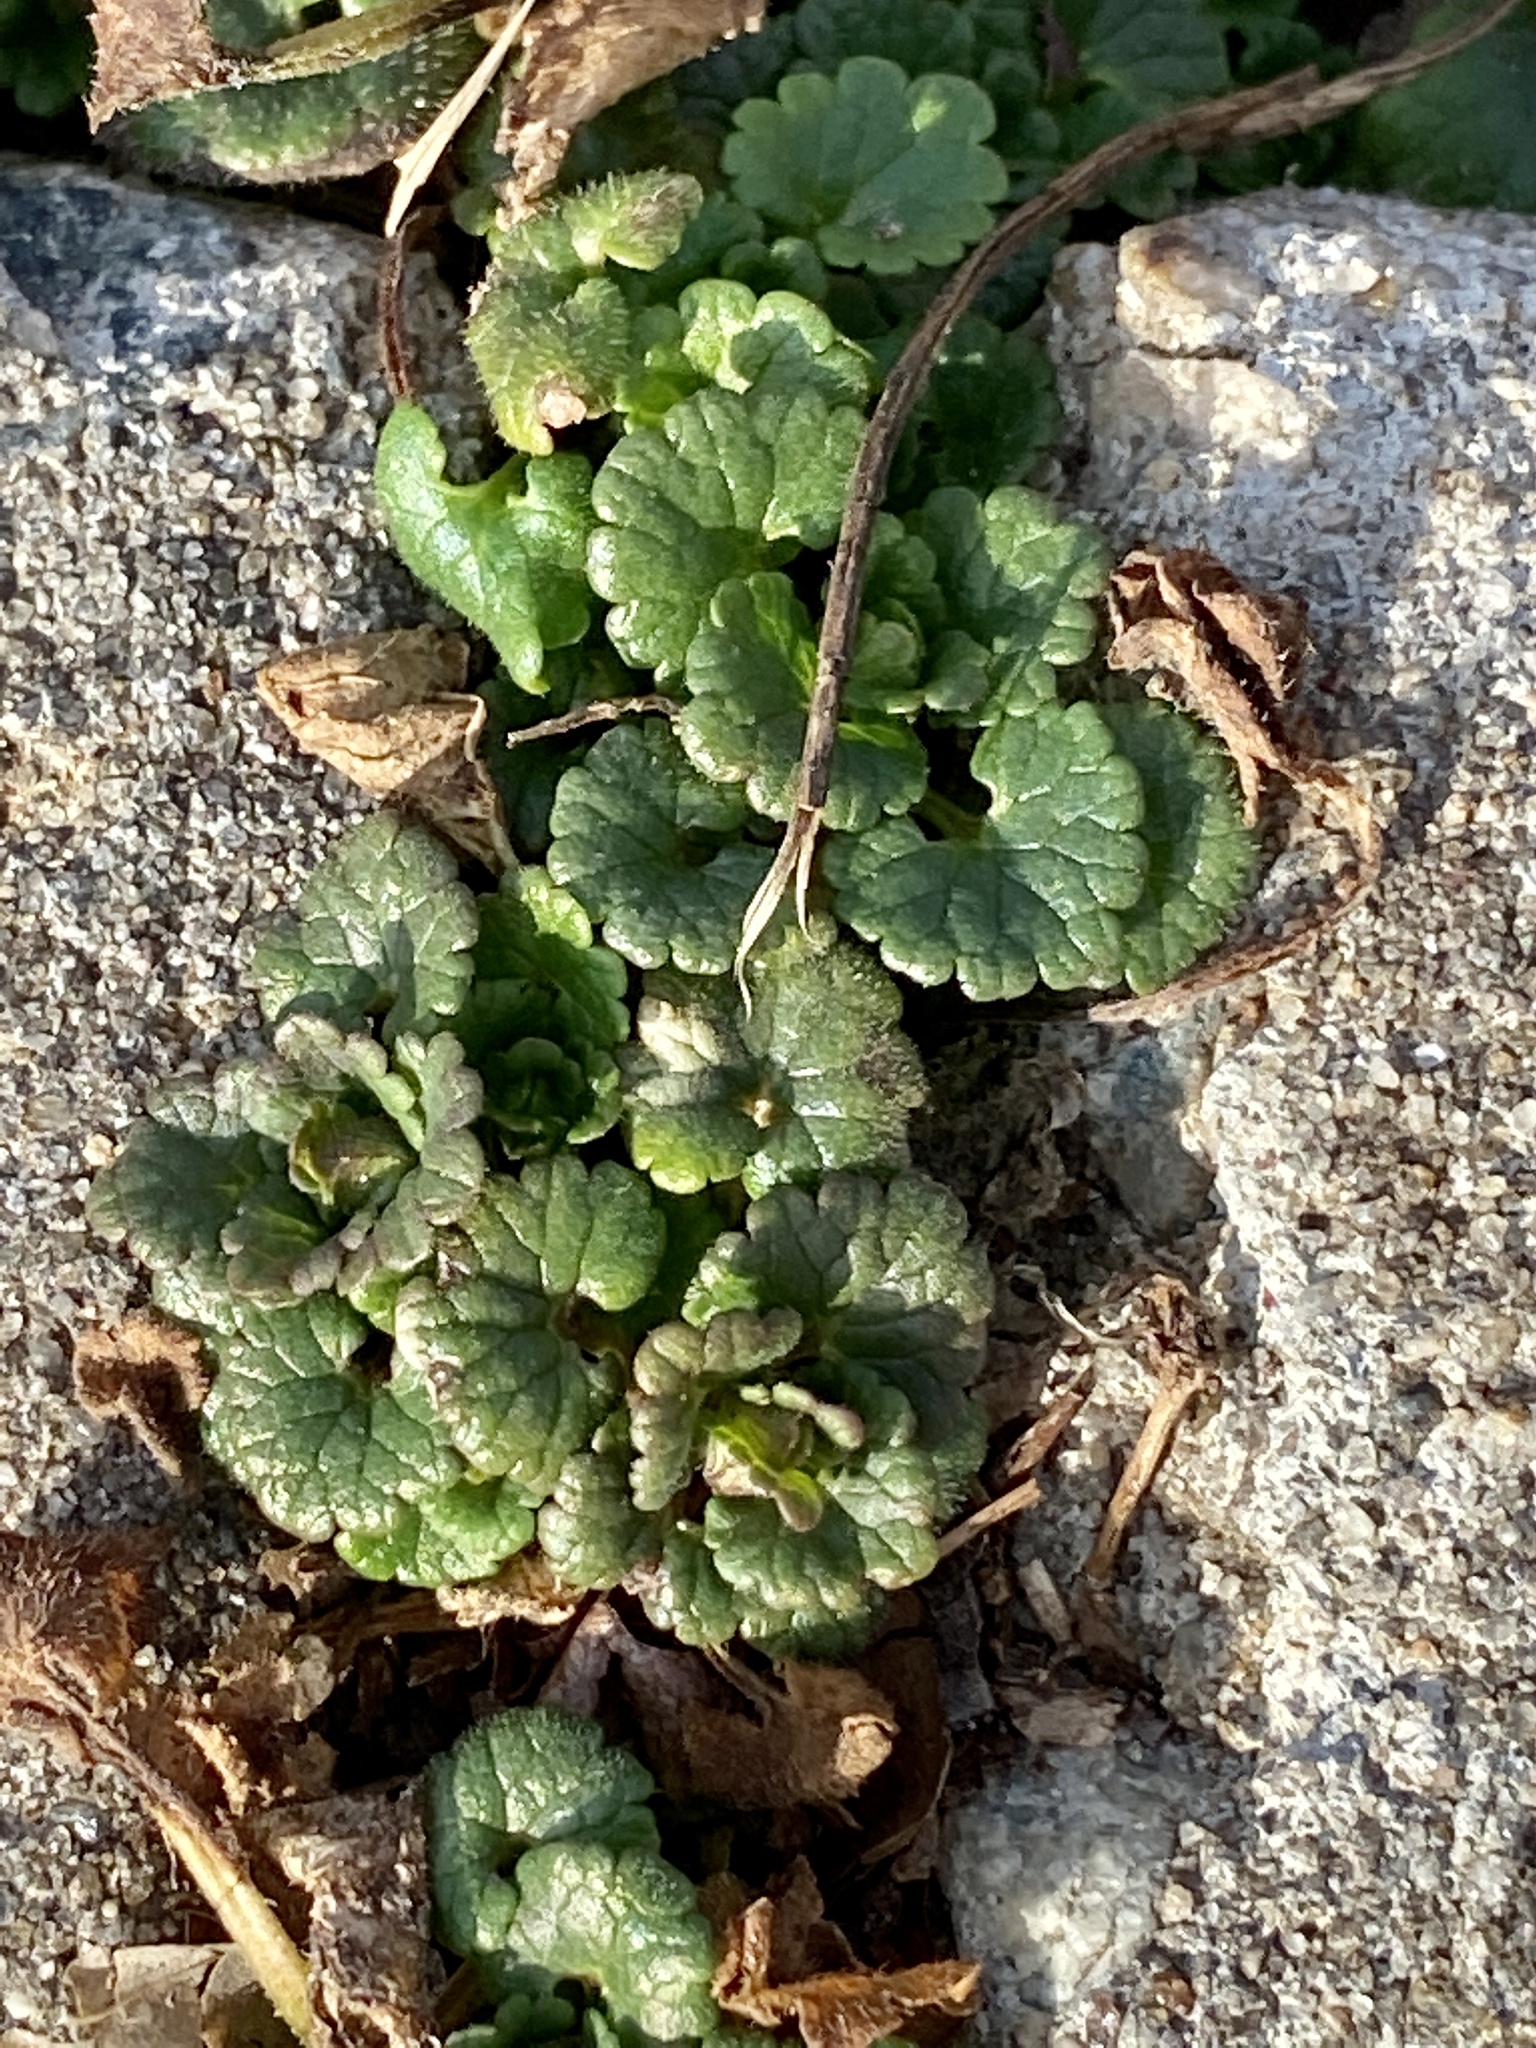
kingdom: Plantae
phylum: Tracheophyta
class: Magnoliopsida
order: Lamiales
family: Lamiaceae
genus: Glechoma
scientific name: Glechoma hederacea
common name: Ground ivy
